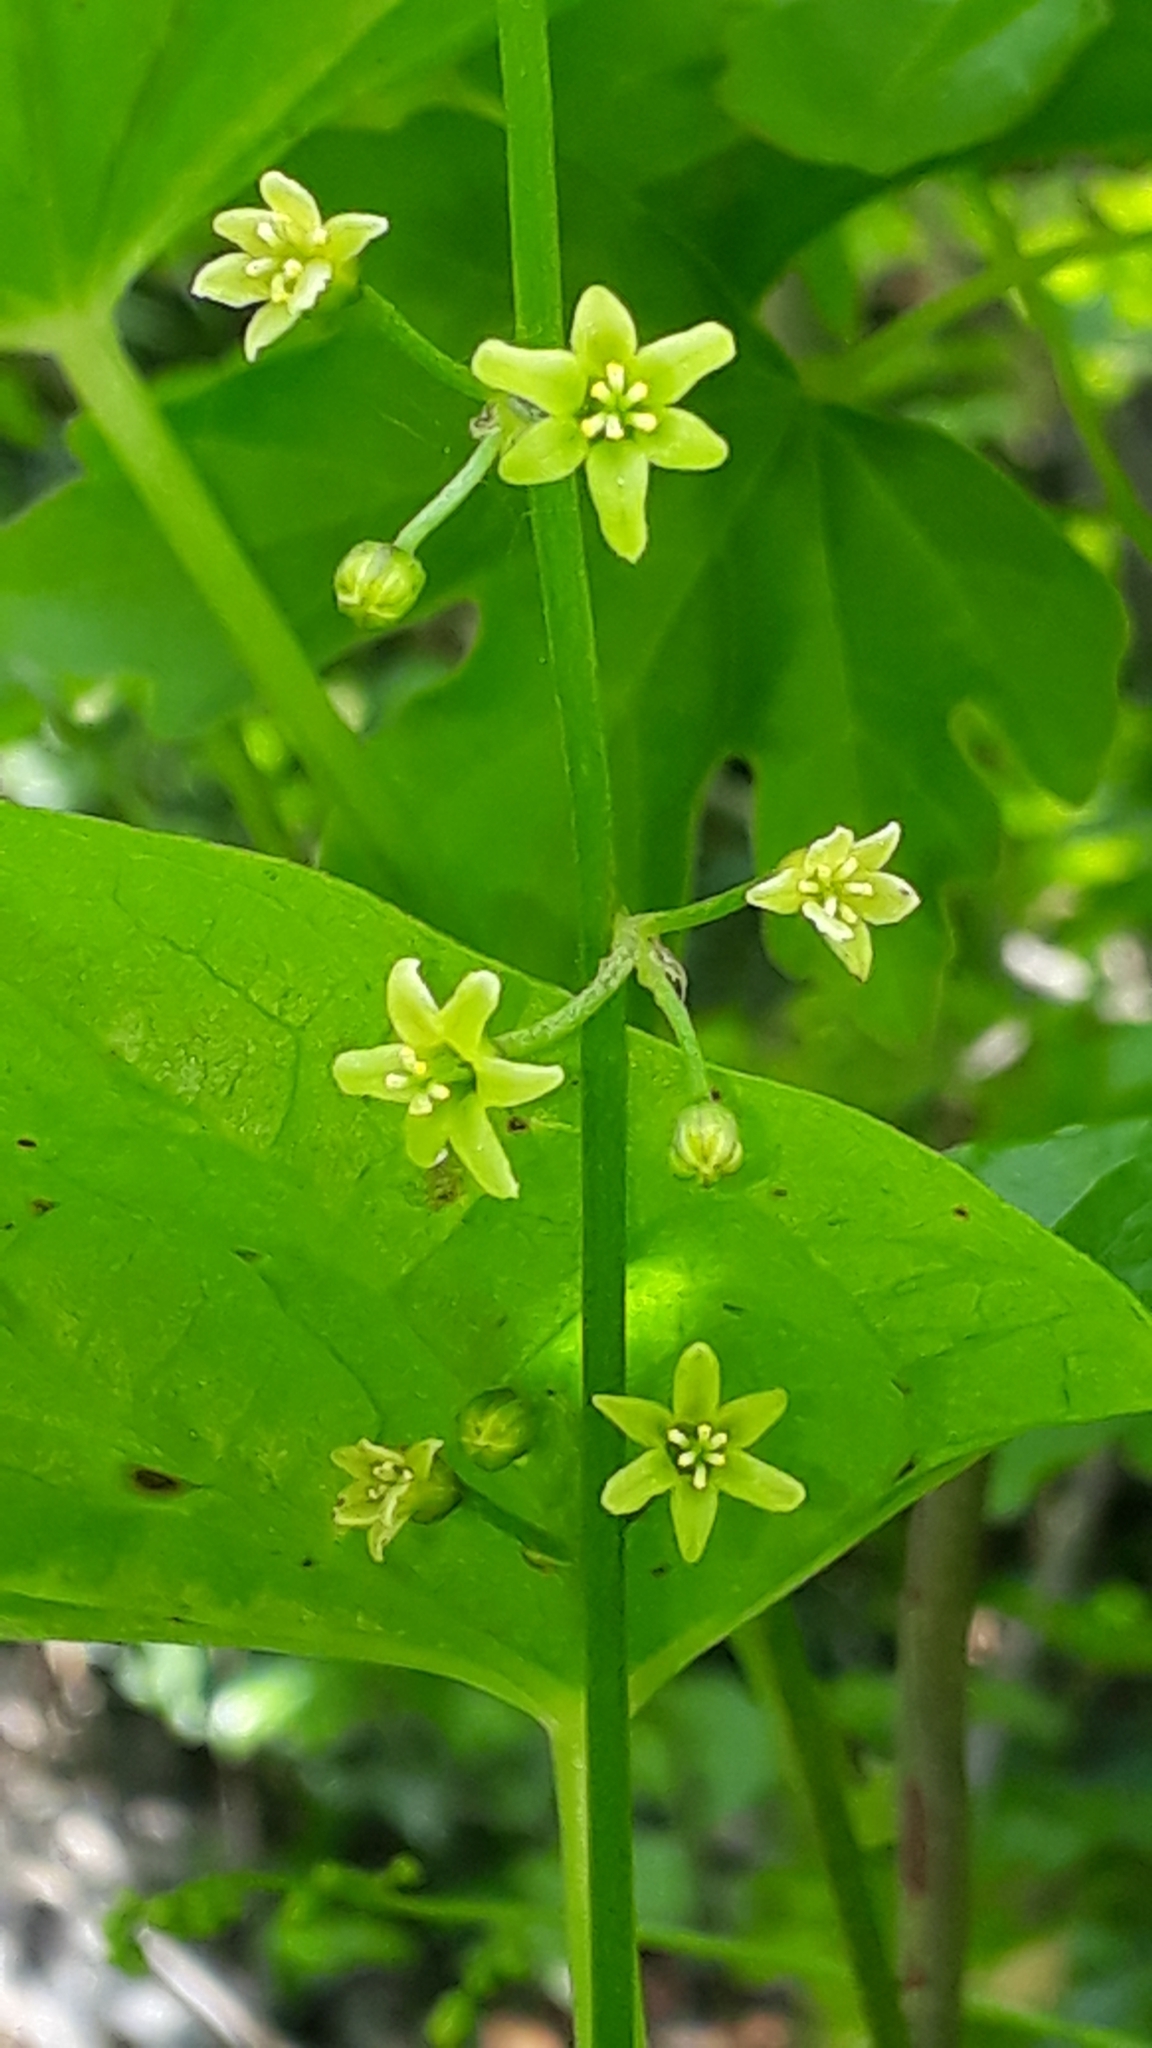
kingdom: Plantae
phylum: Tracheophyta
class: Liliopsida
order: Dioscoreales
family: Dioscoreaceae
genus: Dioscorea
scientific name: Dioscorea communis
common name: Black-bindweed
